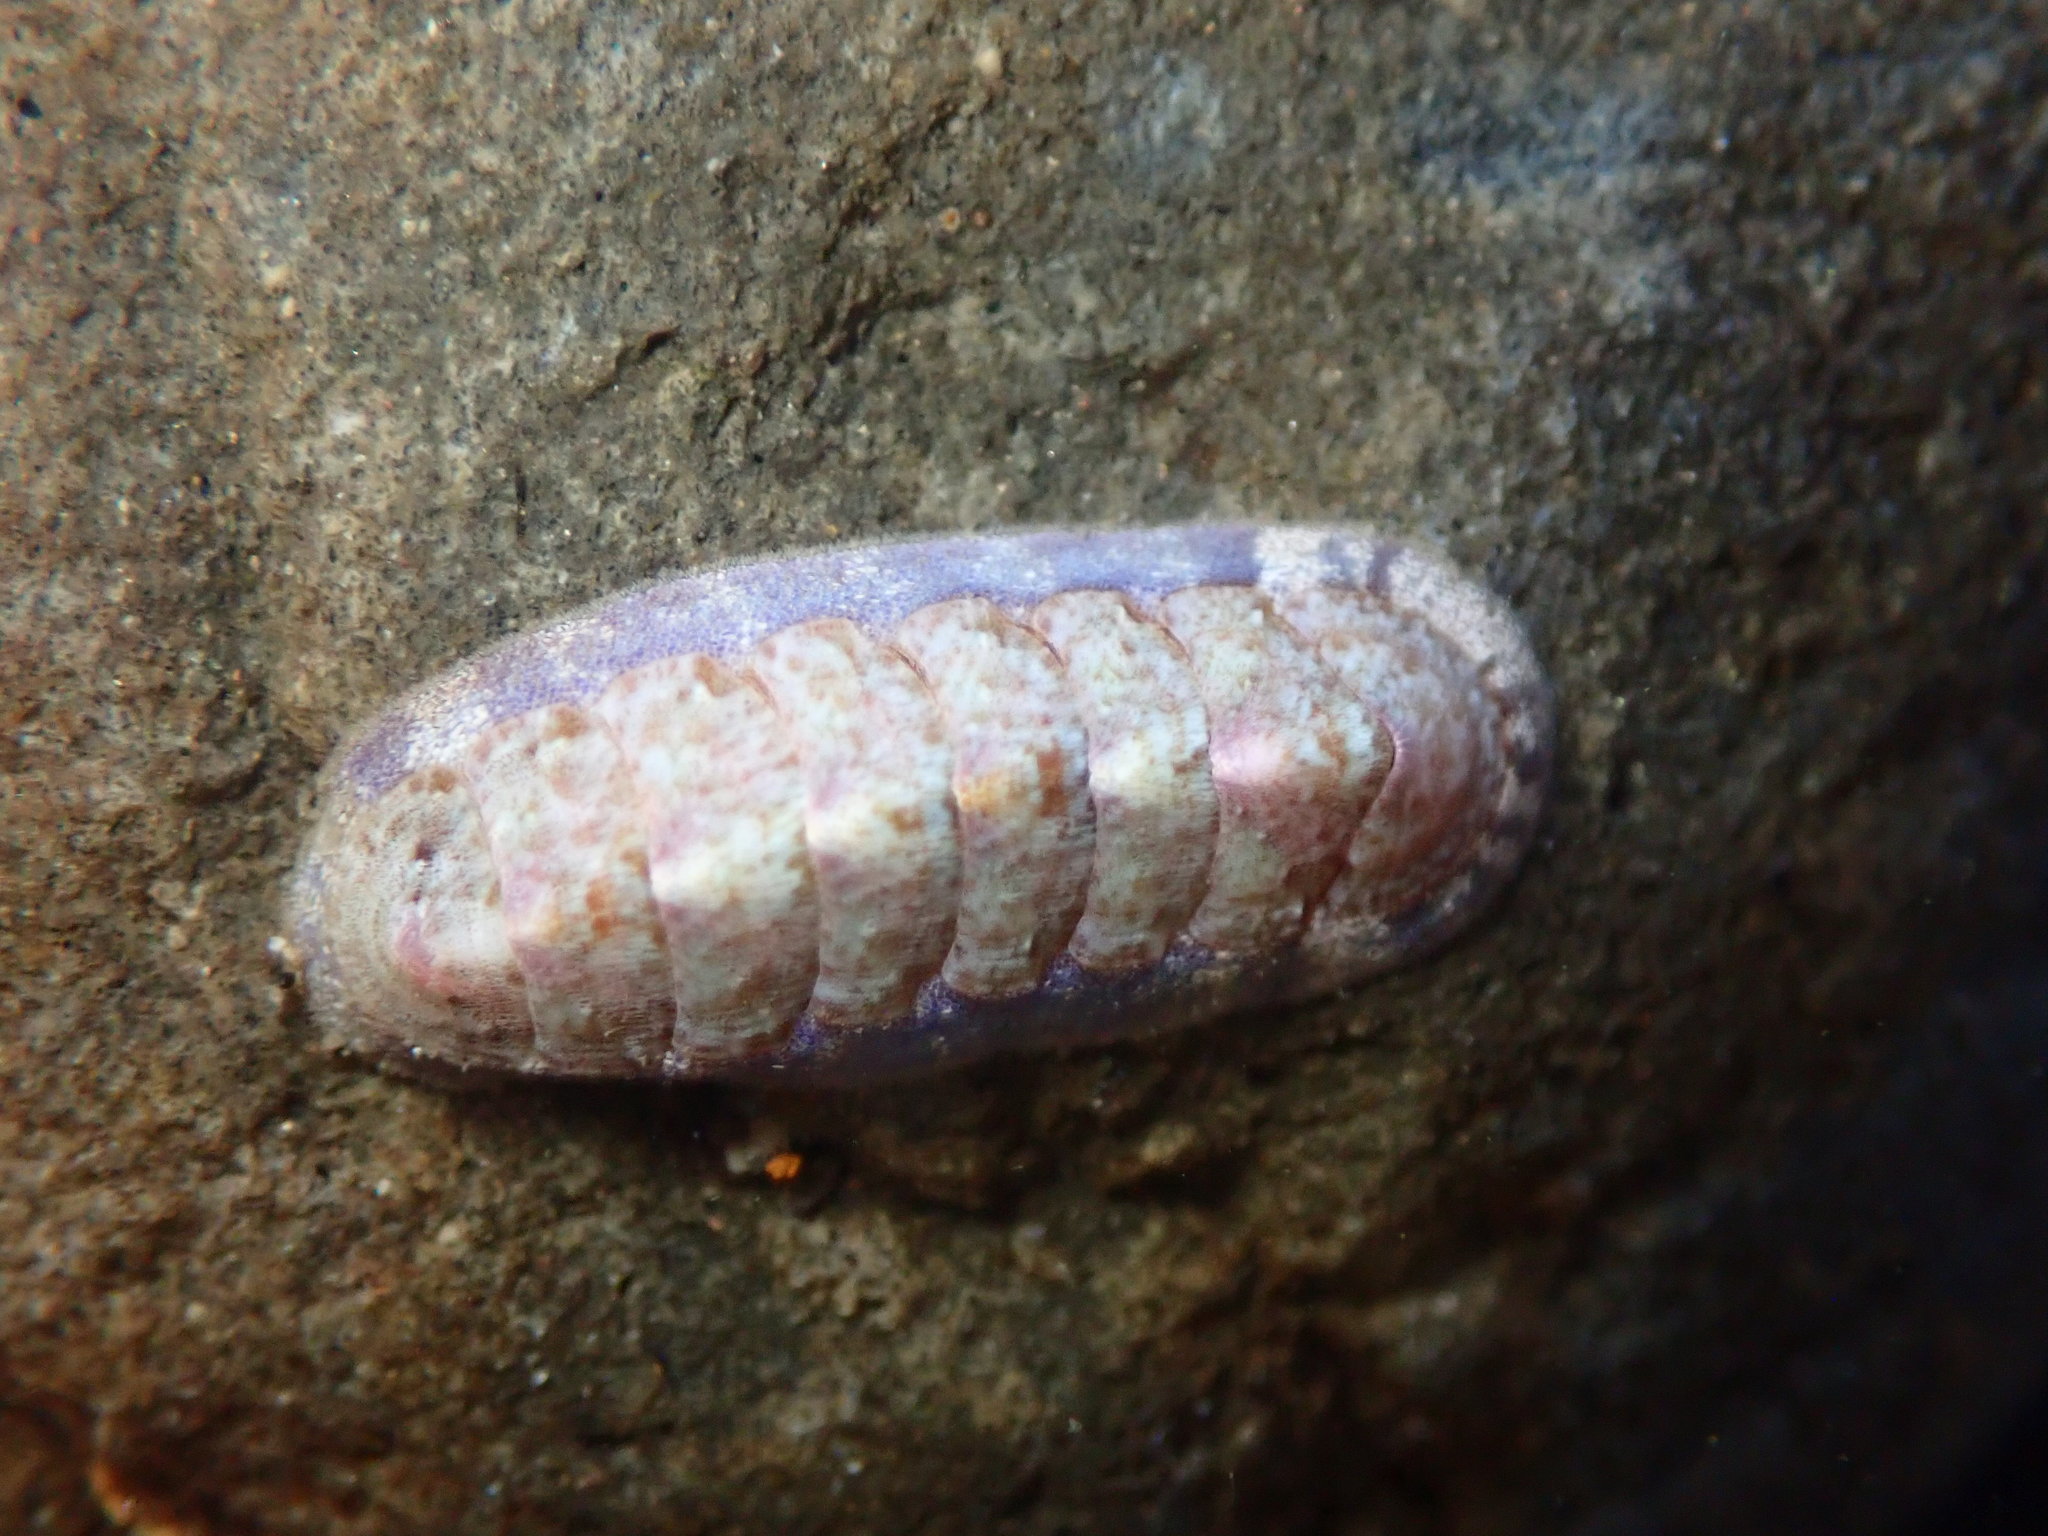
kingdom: Animalia
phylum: Mollusca
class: Polyplacophora
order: Chitonida
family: Ischnochitonidae
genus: Stenoplax
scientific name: Stenoplax heathiana
